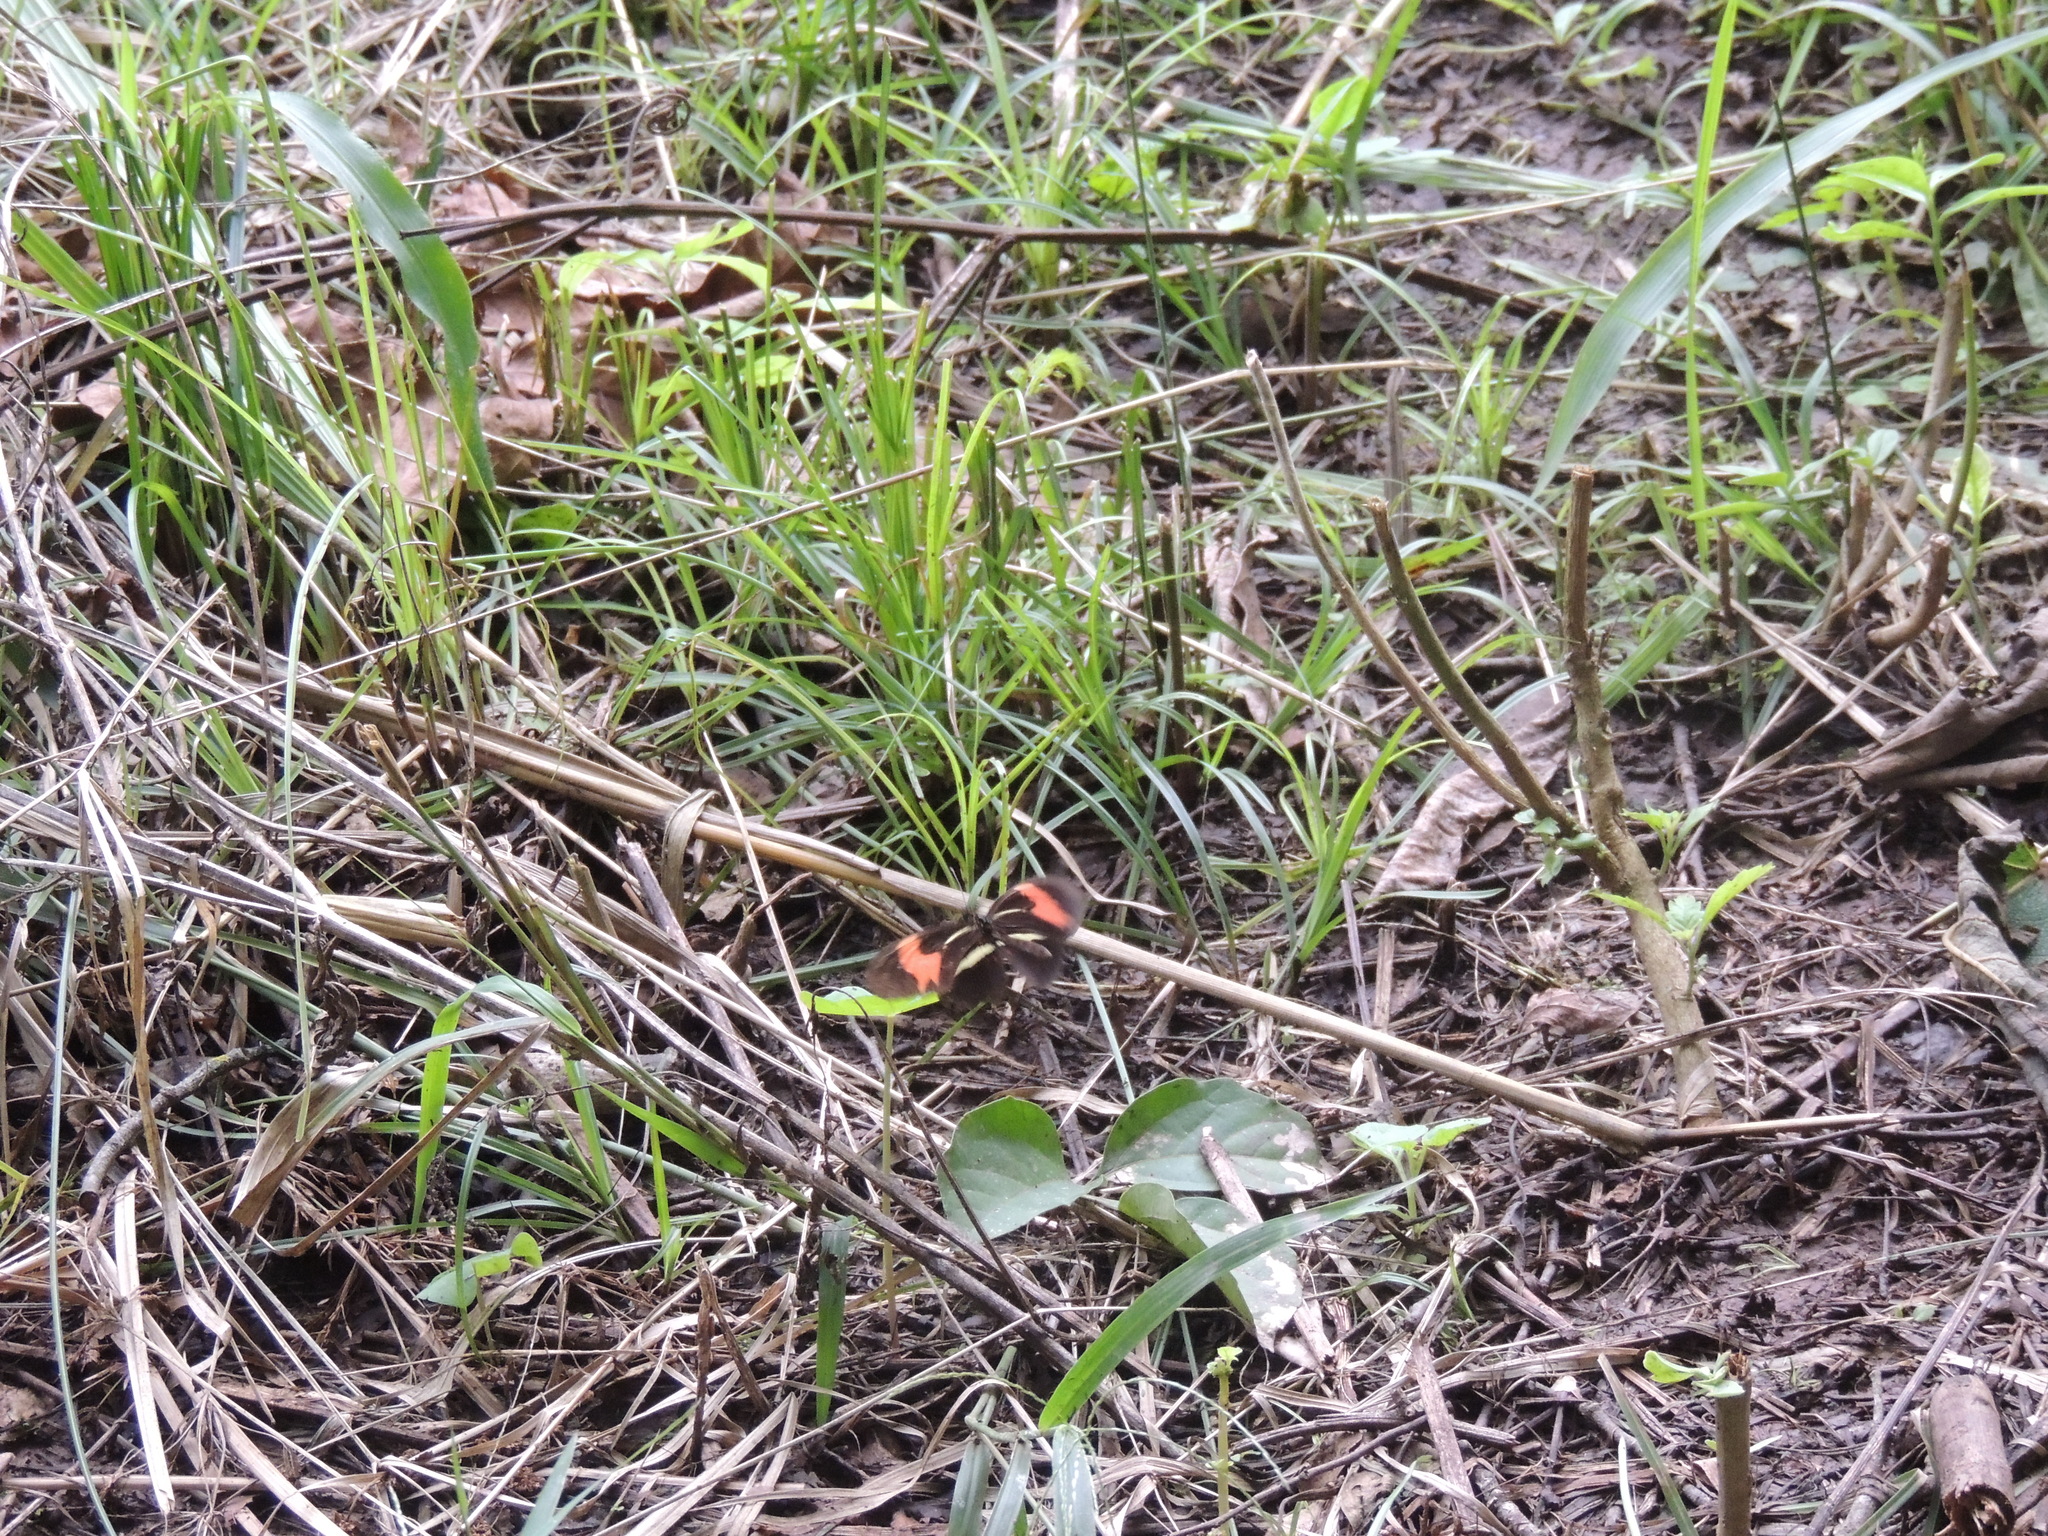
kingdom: Animalia
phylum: Arthropoda
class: Insecta
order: Lepidoptera
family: Nymphalidae
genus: Heliconius
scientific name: Heliconius erato
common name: Common patch longwing
